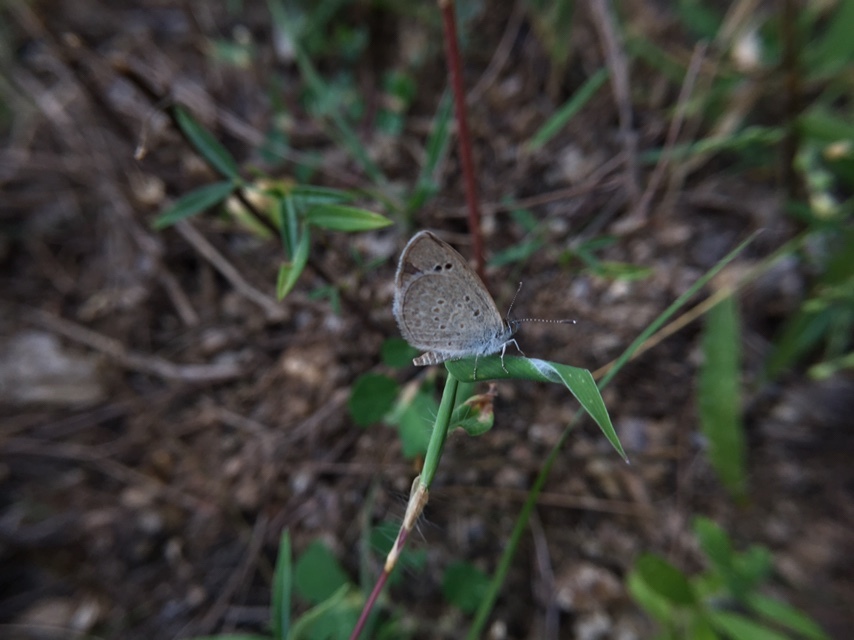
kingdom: Animalia
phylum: Arthropoda
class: Insecta
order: Lepidoptera
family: Lycaenidae
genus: Zizina
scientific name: Zizina otis
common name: Lesser grass blue
